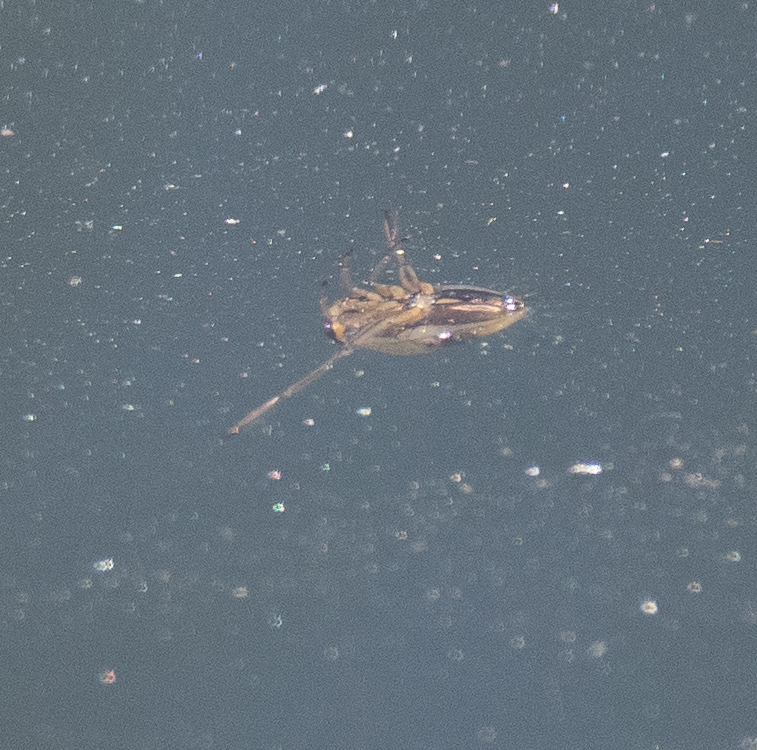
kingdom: Animalia
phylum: Arthropoda
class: Insecta
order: Hemiptera
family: Notonectidae
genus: Notonecta
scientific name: Notonecta
